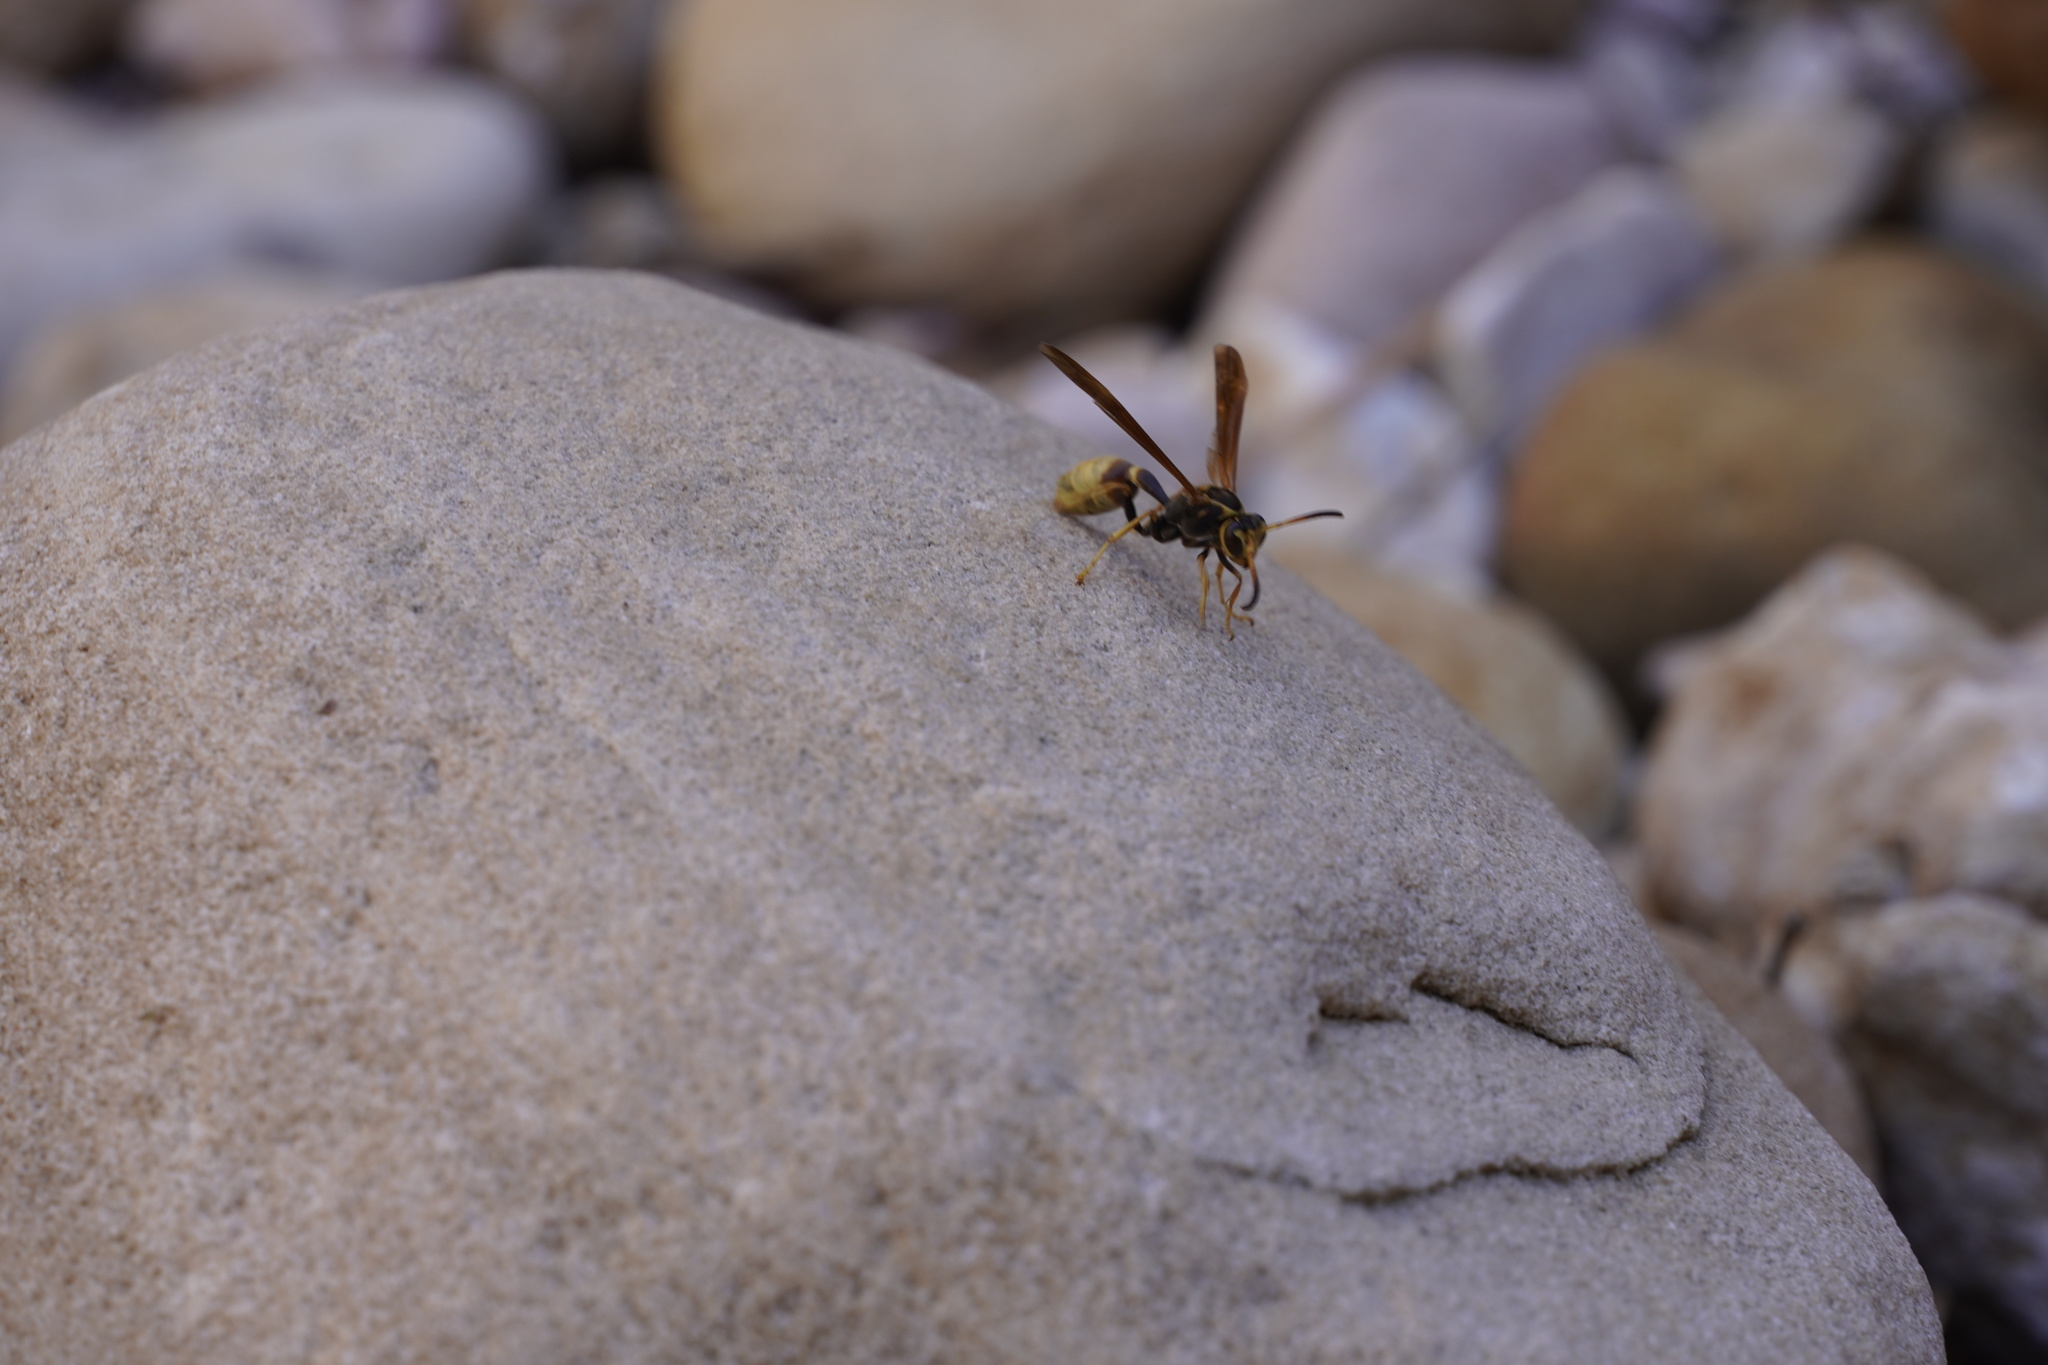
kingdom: Animalia
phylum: Arthropoda
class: Insecta
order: Hymenoptera
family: Vespidae
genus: Mischocyttarus
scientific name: Mischocyttarus navajo
